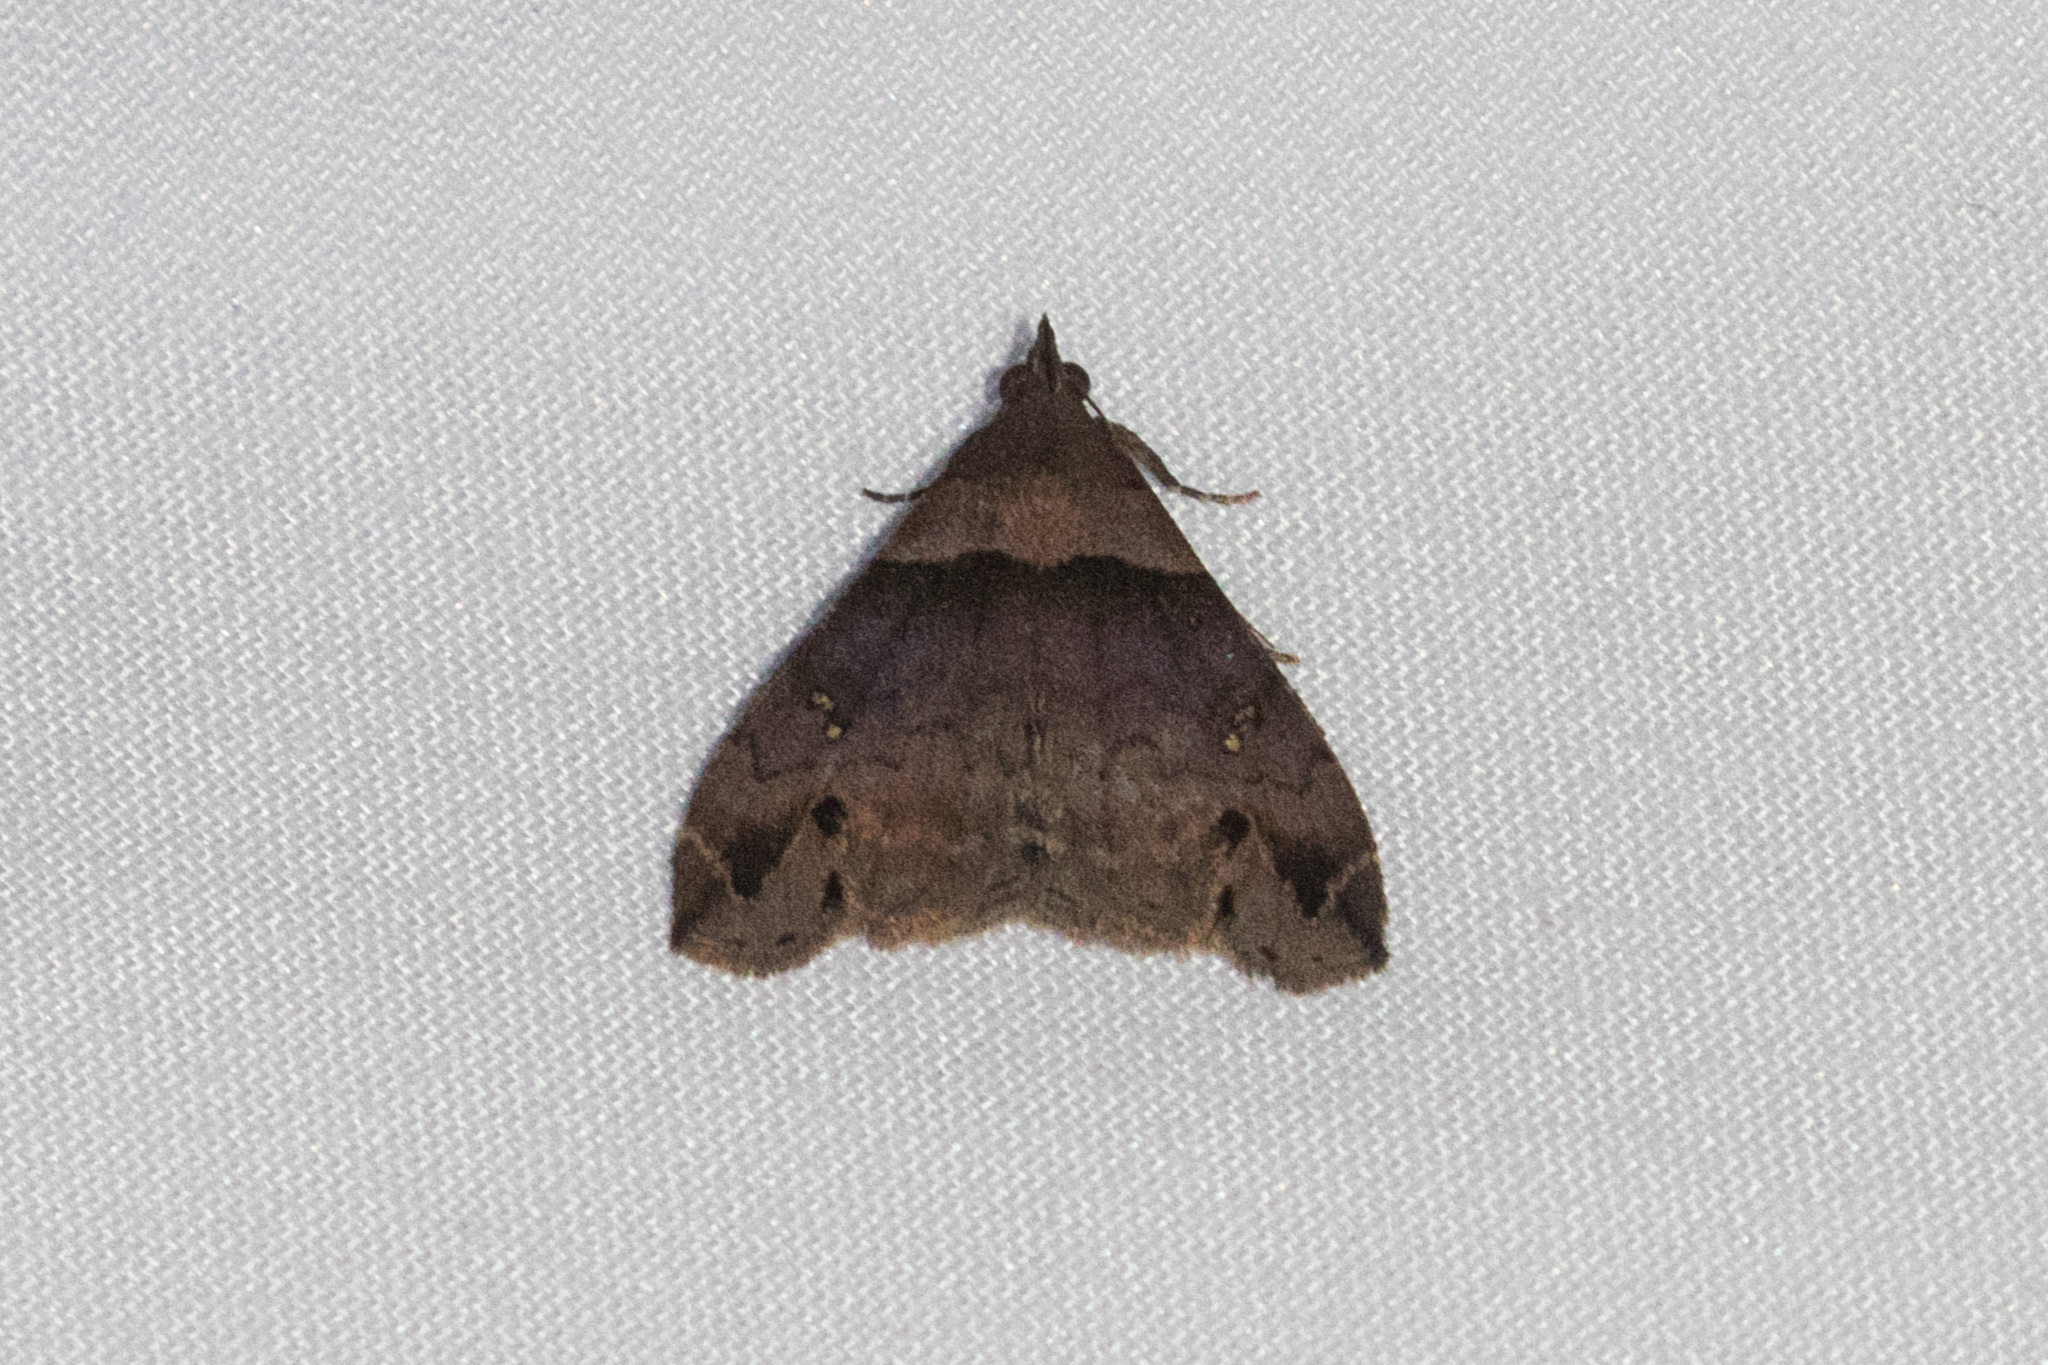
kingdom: Animalia
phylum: Arthropoda
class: Insecta
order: Lepidoptera
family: Erebidae
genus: Lascoria
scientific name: Lascoria ambigualis
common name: Ambiguous moth
